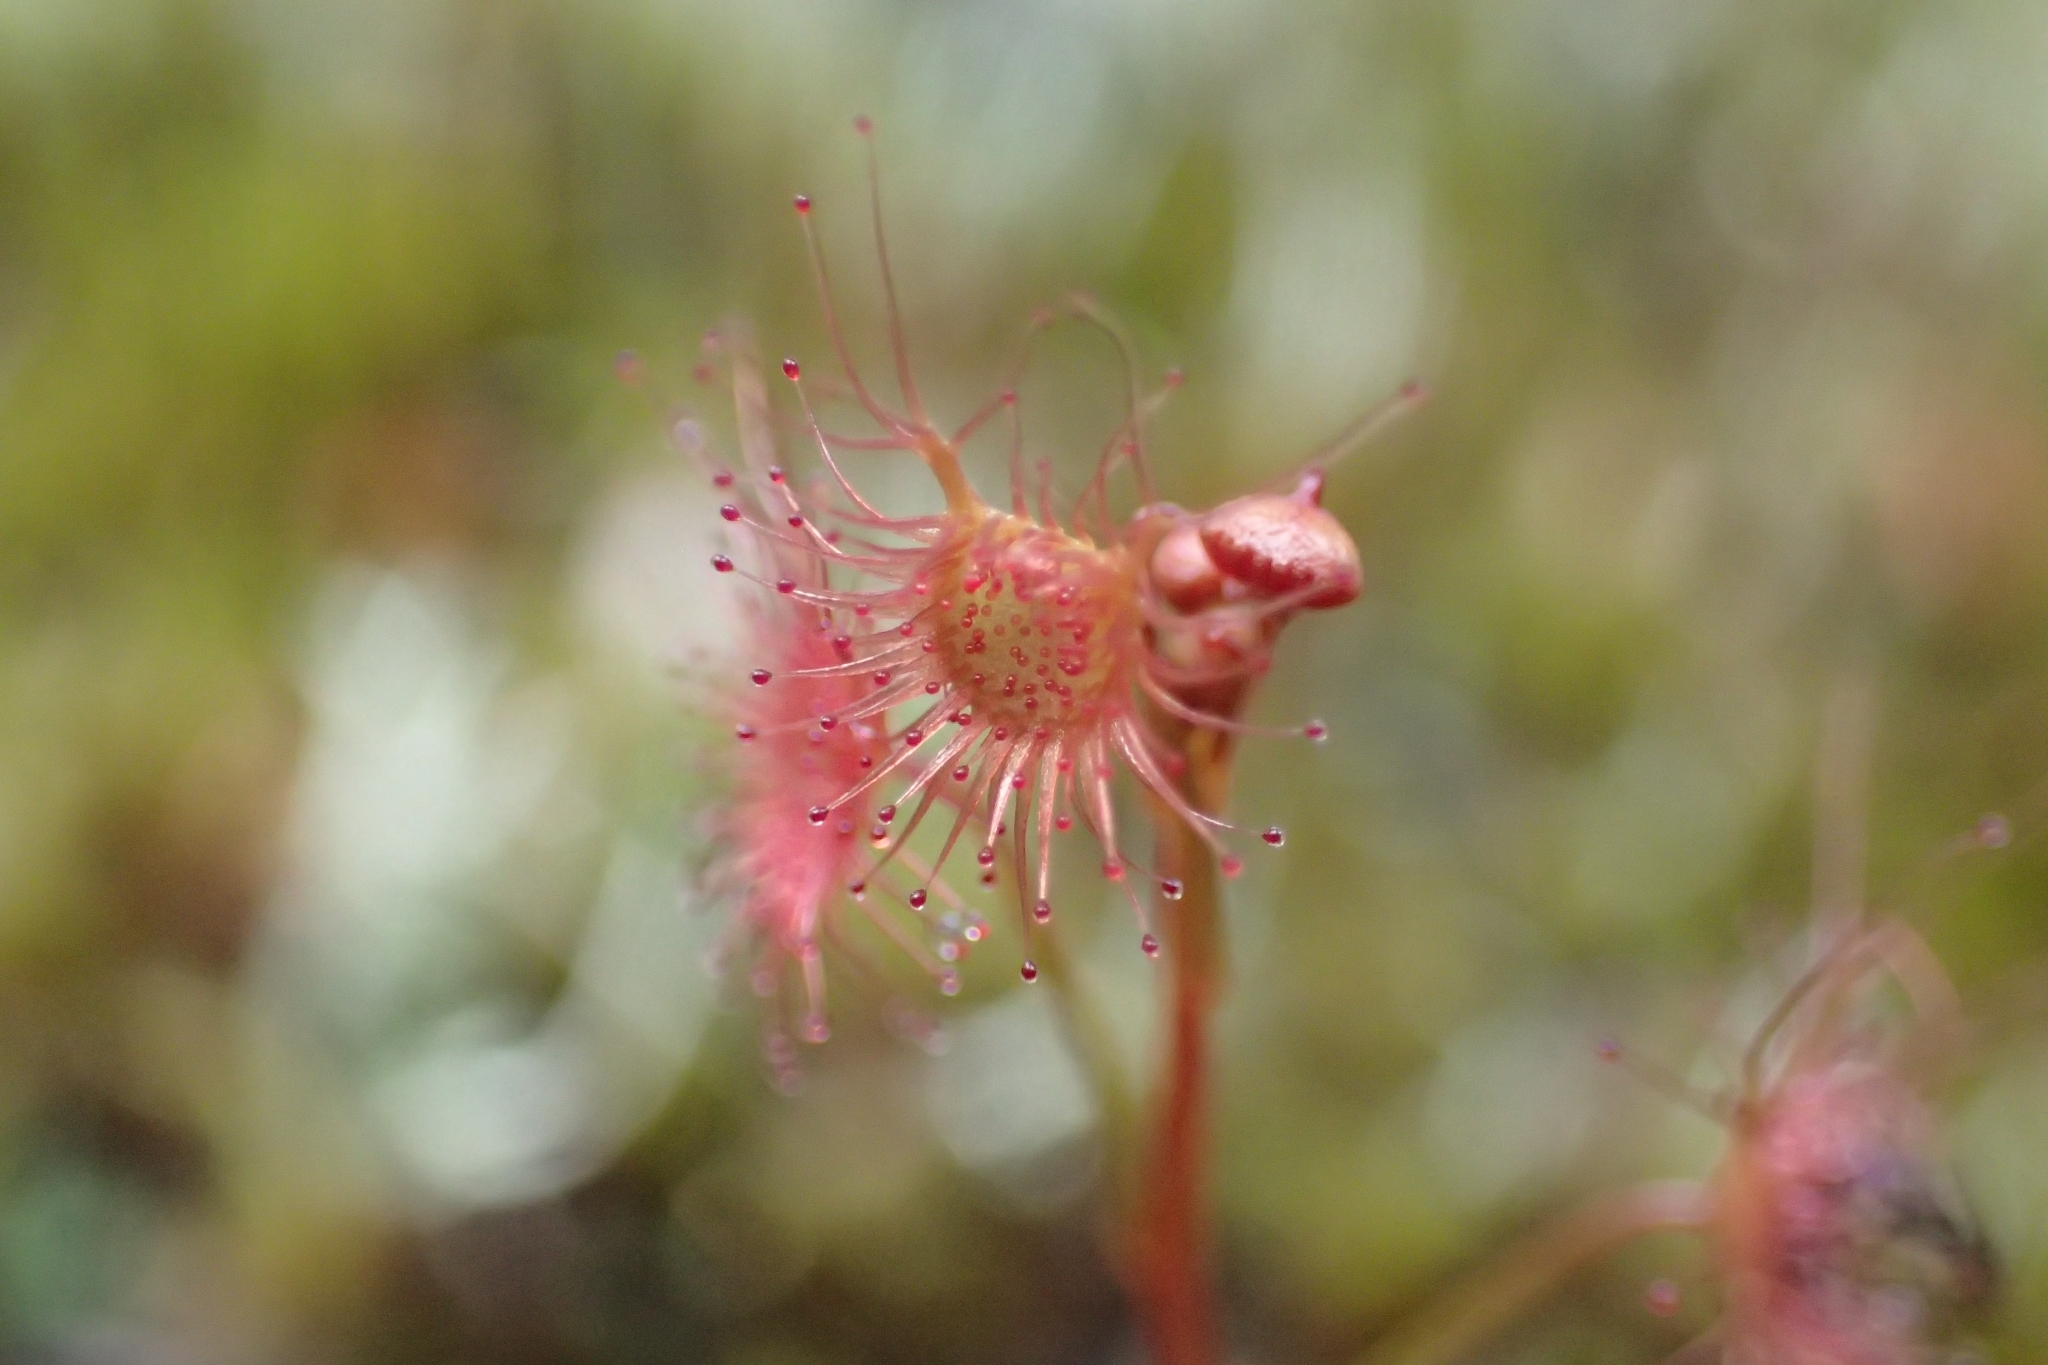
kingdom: Plantae
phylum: Tracheophyta
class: Magnoliopsida
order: Caryophyllales
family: Droseraceae
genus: Drosera
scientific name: Drosera peltata
